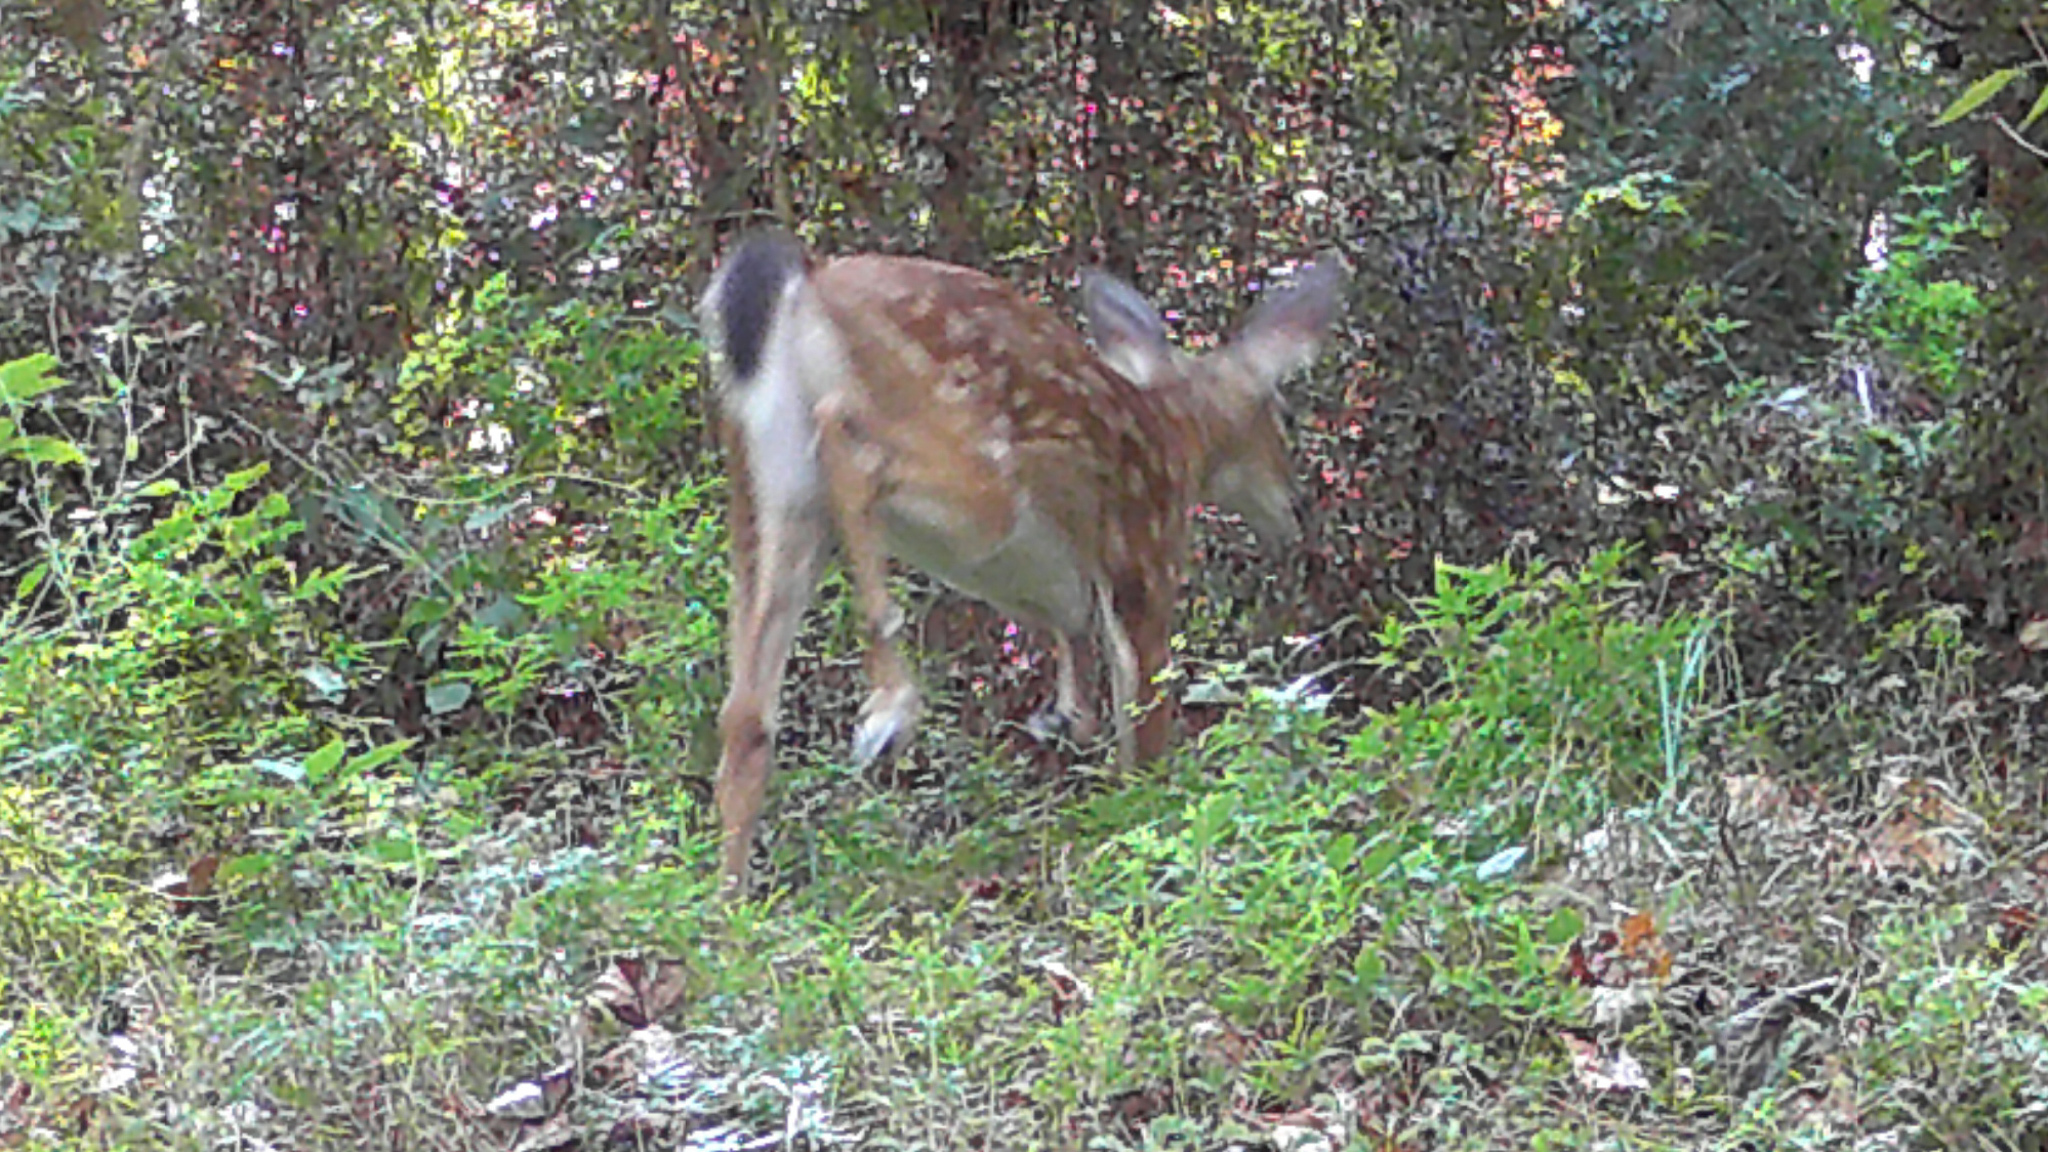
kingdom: Animalia
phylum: Chordata
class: Mammalia
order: Artiodactyla
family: Cervidae
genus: Odocoileus
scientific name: Odocoileus virginianus
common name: White-tailed deer
